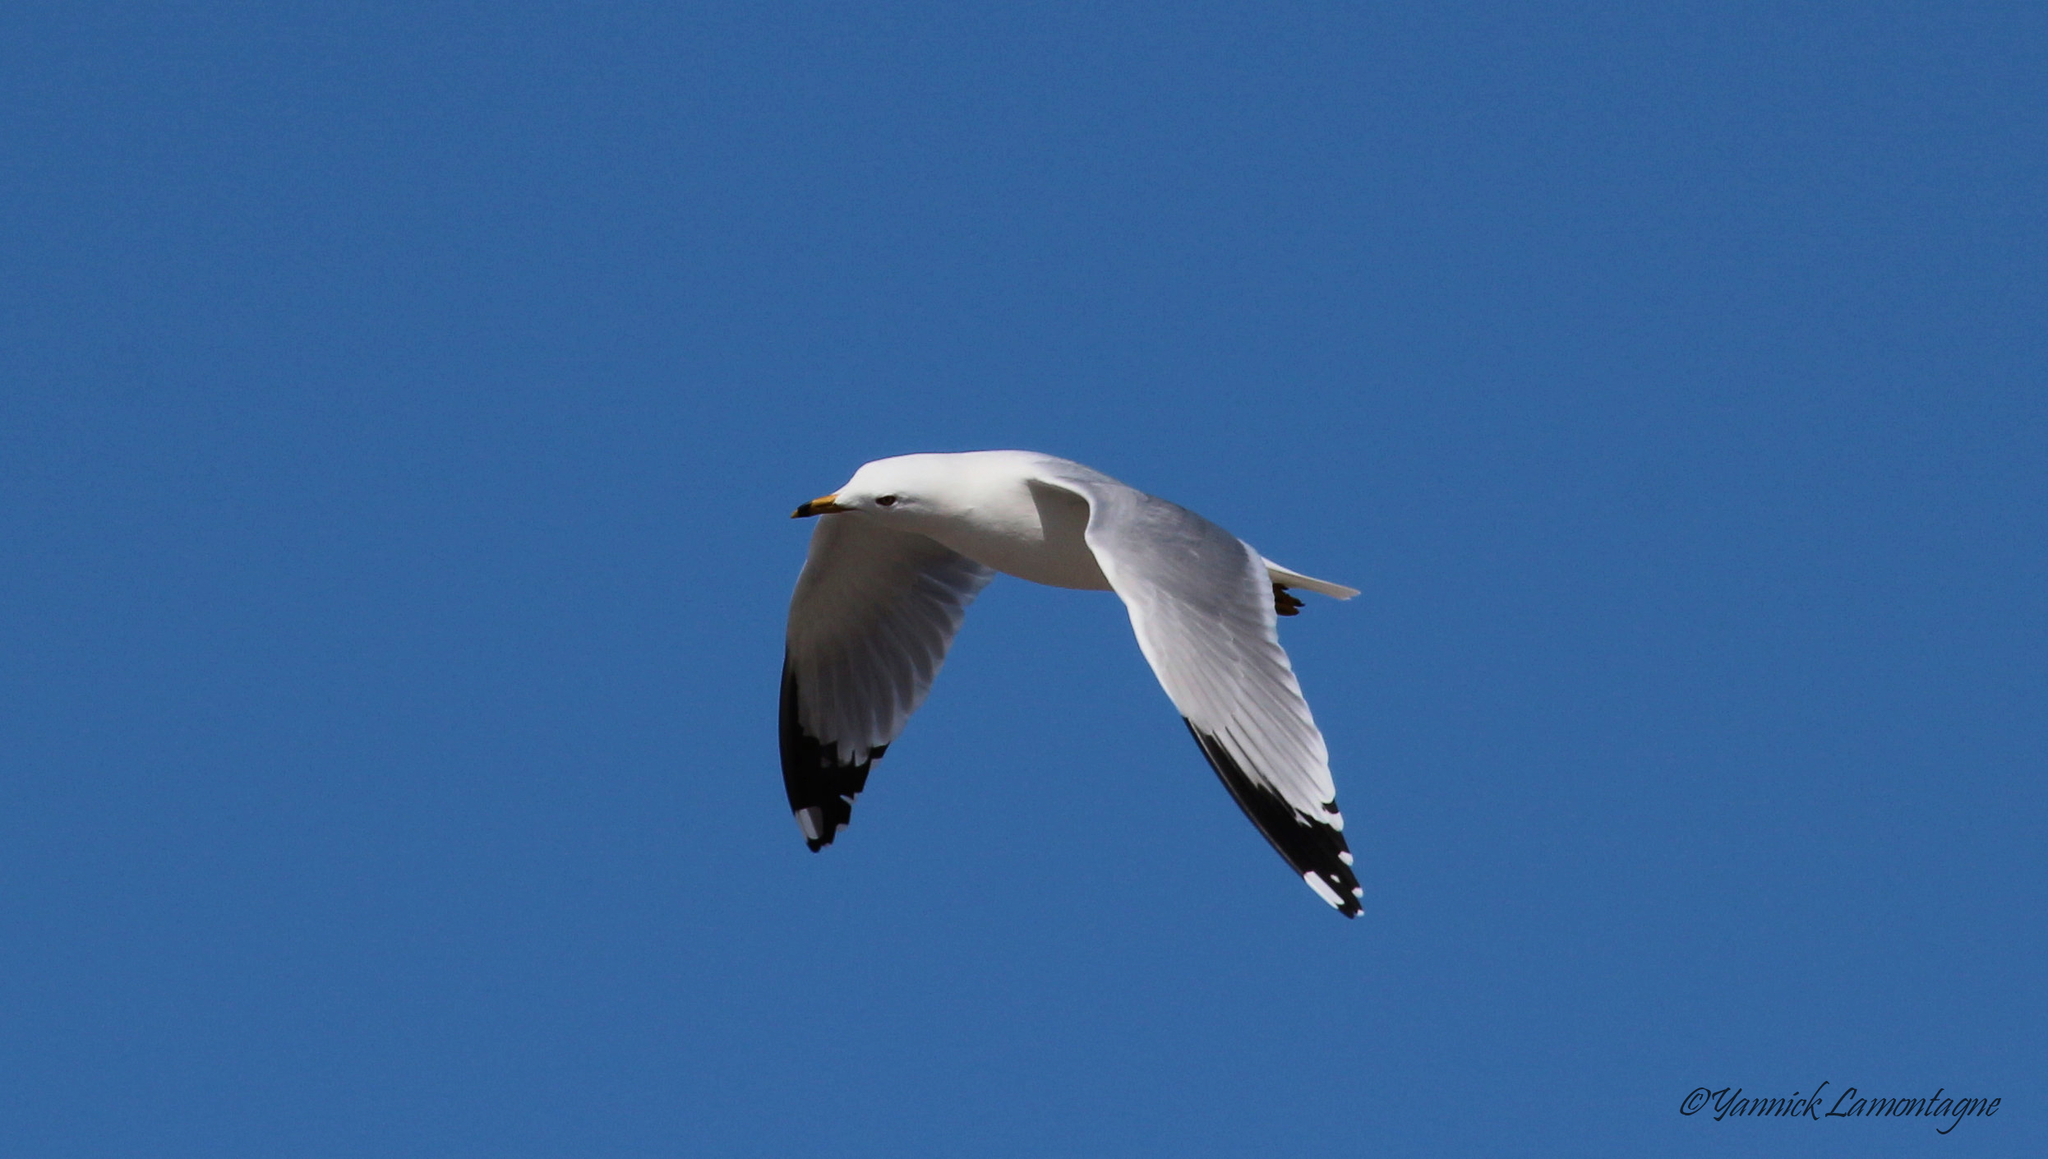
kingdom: Animalia
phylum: Chordata
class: Aves
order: Charadriiformes
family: Laridae
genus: Larus
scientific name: Larus delawarensis
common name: Ring-billed gull
